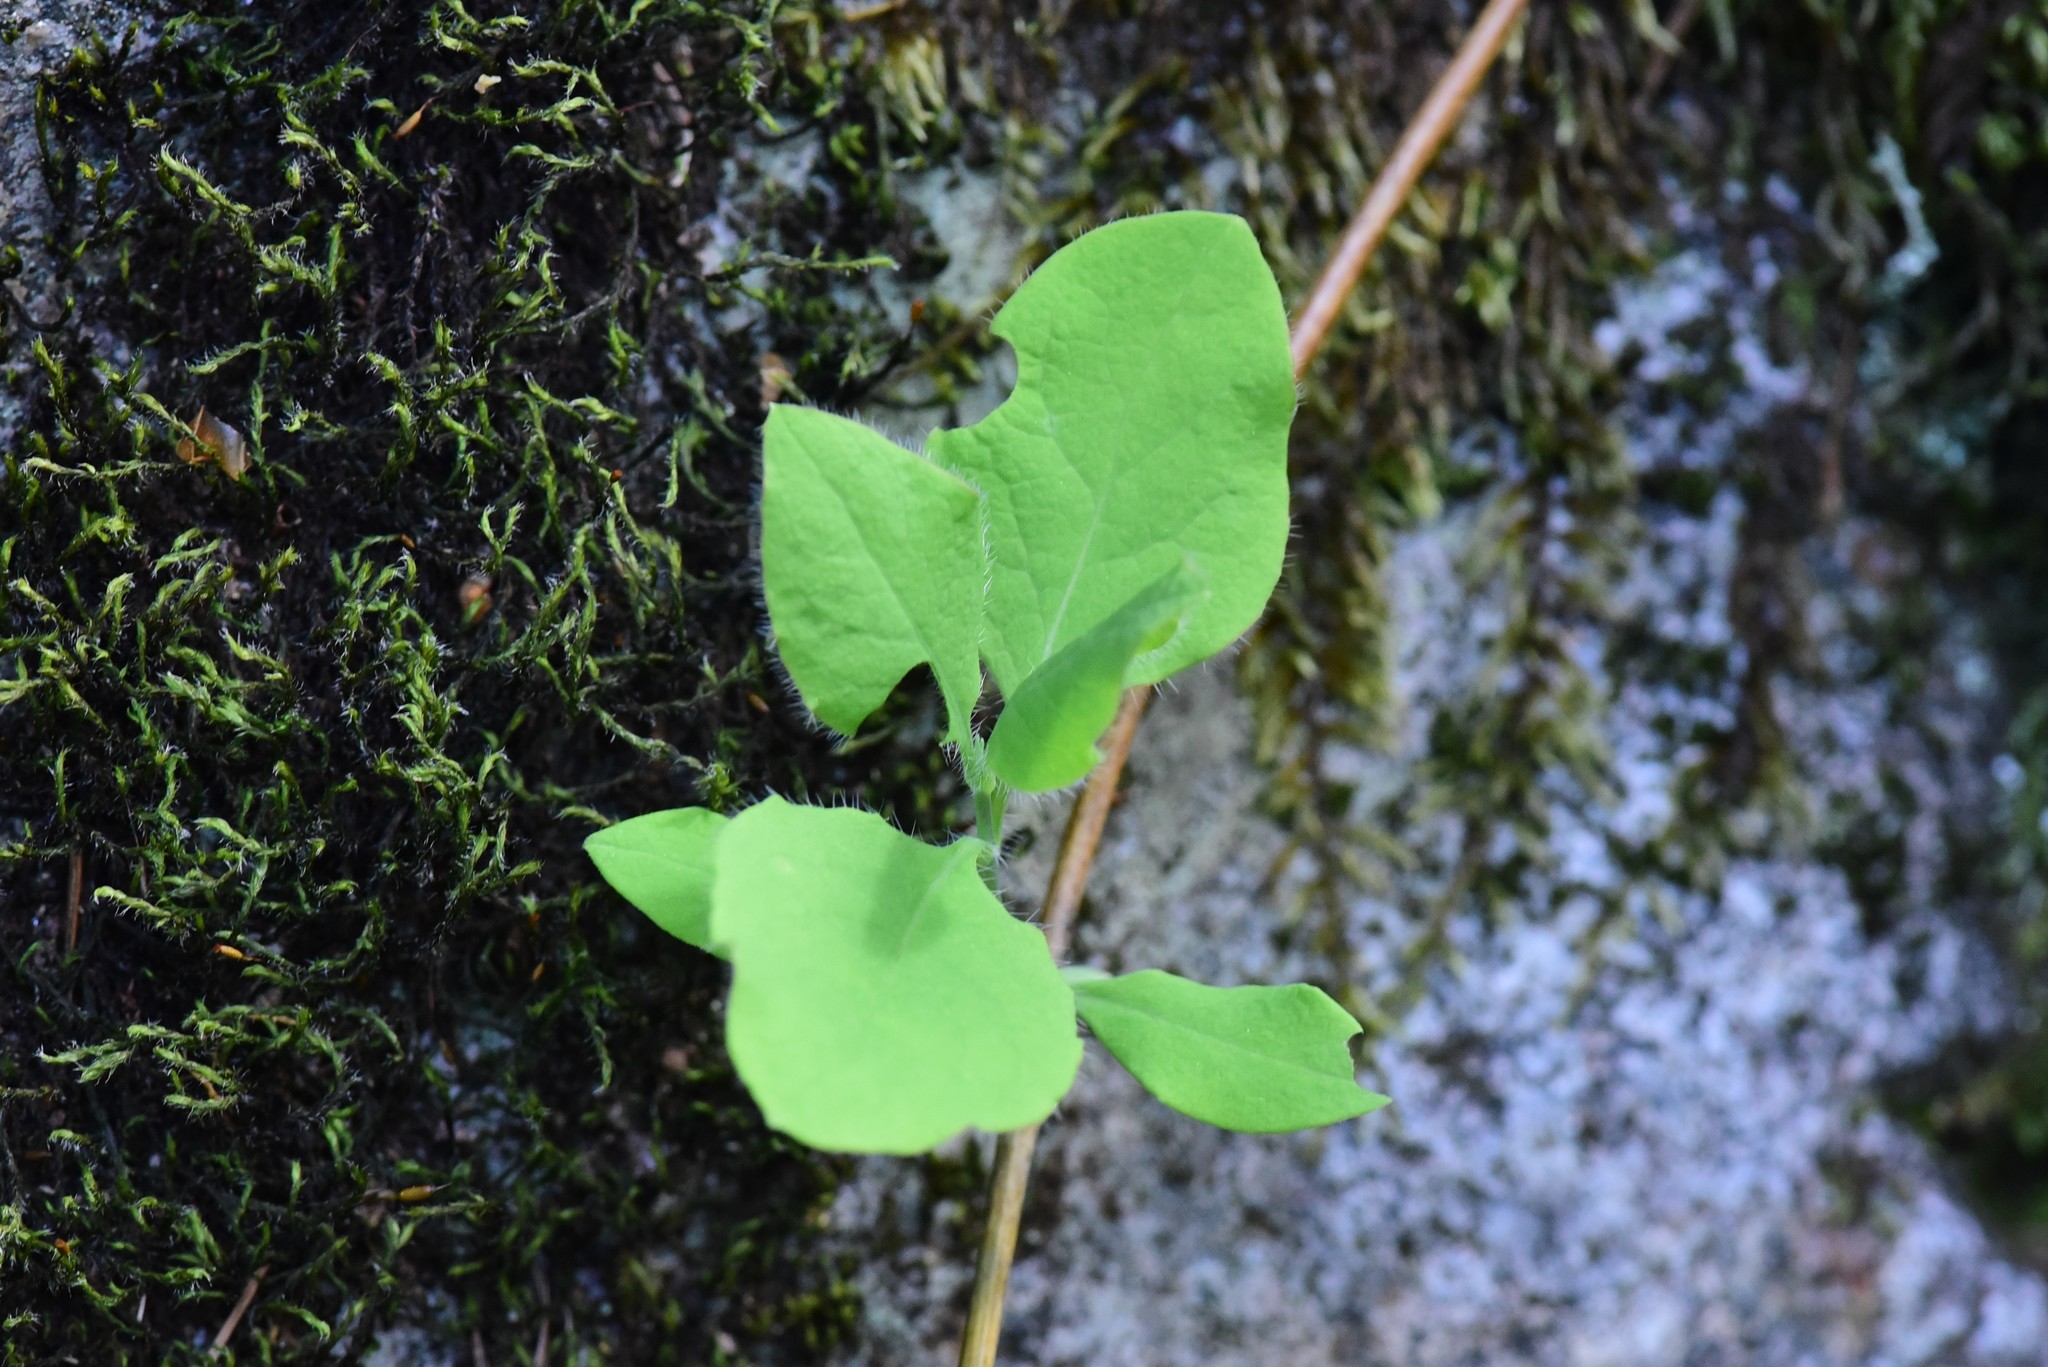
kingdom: Plantae
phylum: Tracheophyta
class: Magnoliopsida
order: Dipsacales
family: Caprifoliaceae
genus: Lonicera
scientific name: Lonicera ciliosa
